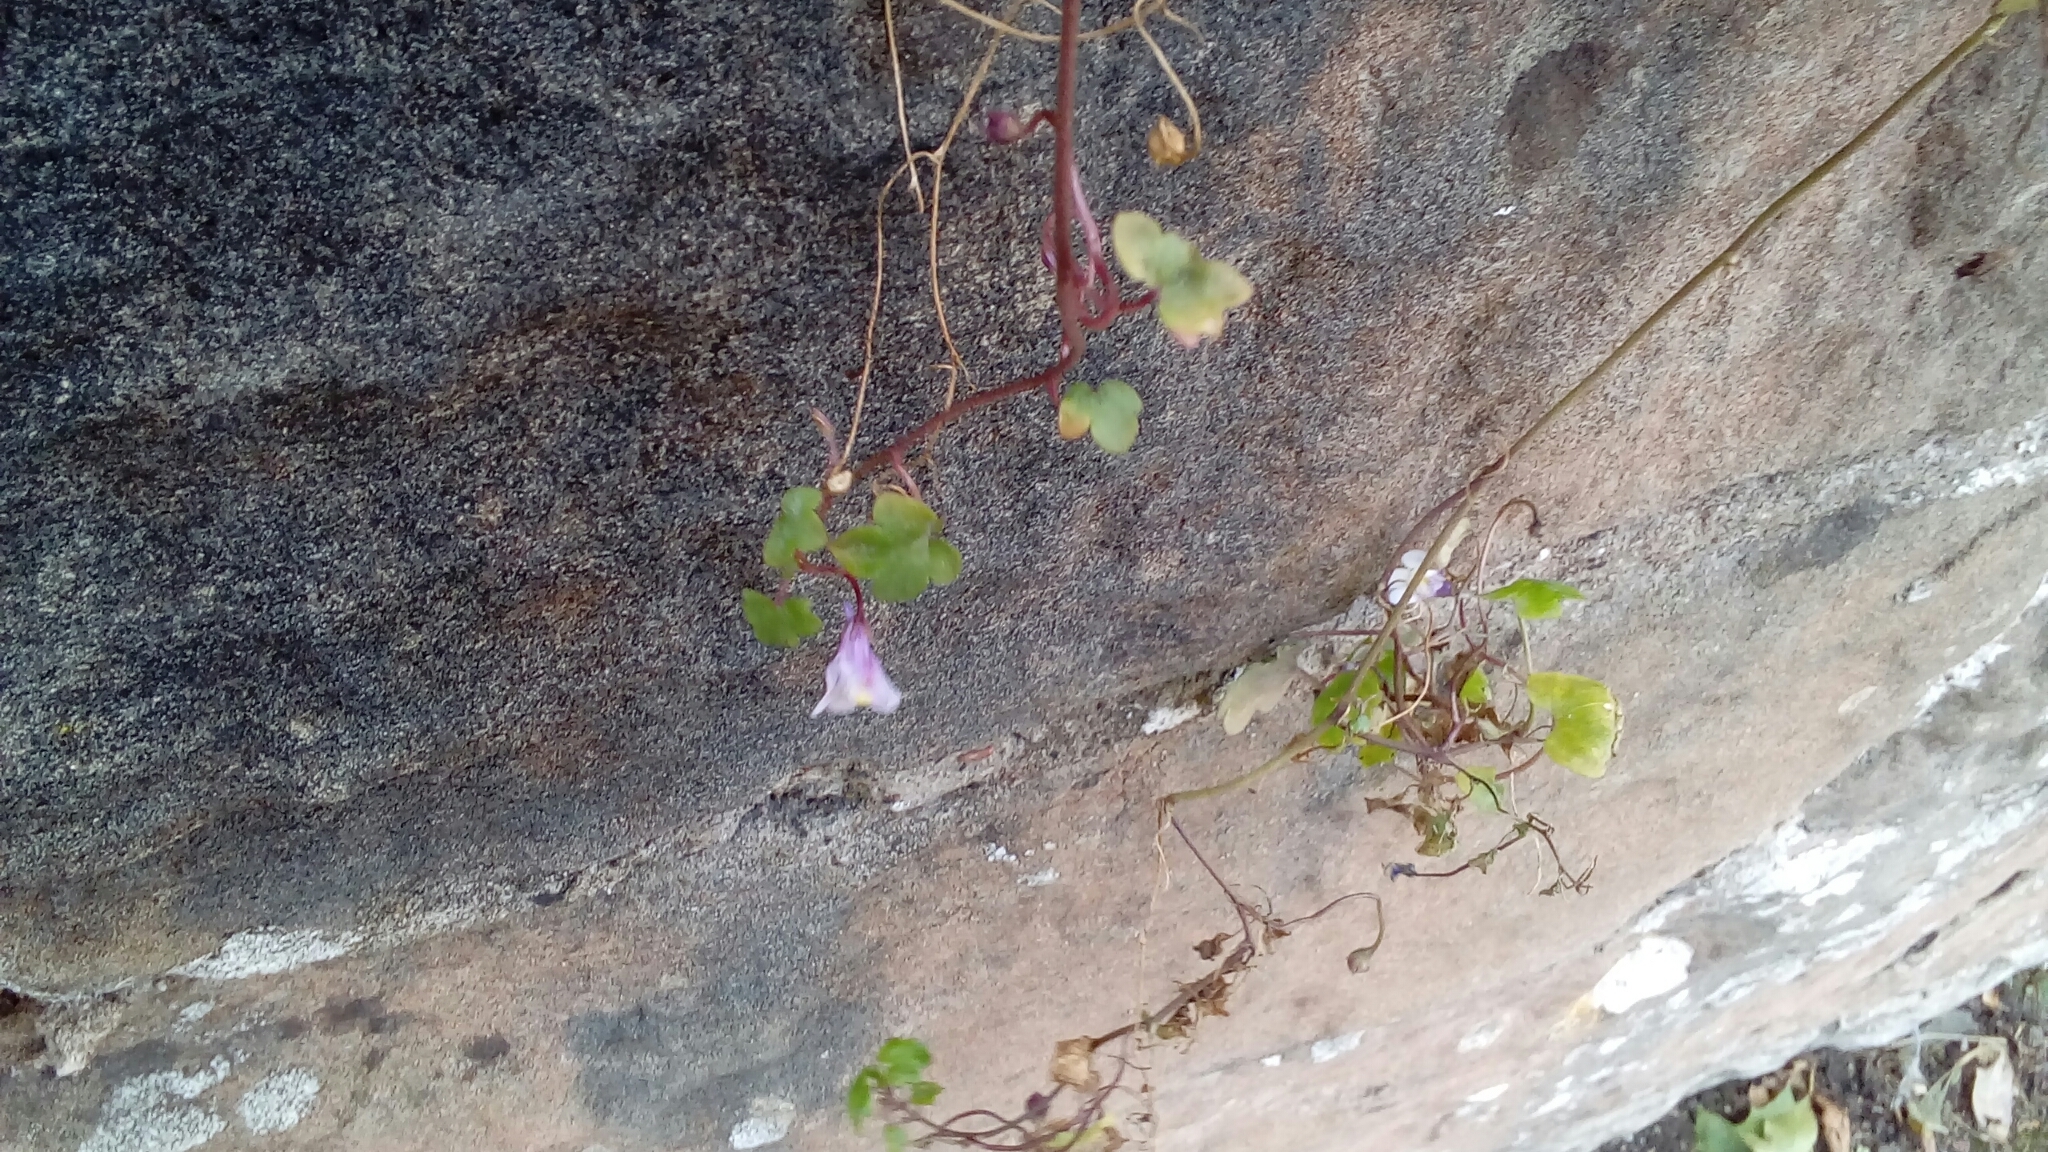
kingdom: Plantae
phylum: Tracheophyta
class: Magnoliopsida
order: Lamiales
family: Plantaginaceae
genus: Cymbalaria
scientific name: Cymbalaria muralis
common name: Ivy-leaved toadflax
